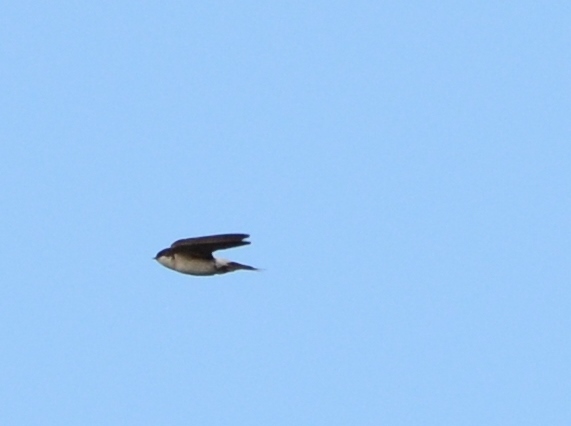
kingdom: Animalia
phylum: Chordata
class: Aves
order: Passeriformes
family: Hirundinidae
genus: Delichon
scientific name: Delichon urbicum
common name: Common house martin
